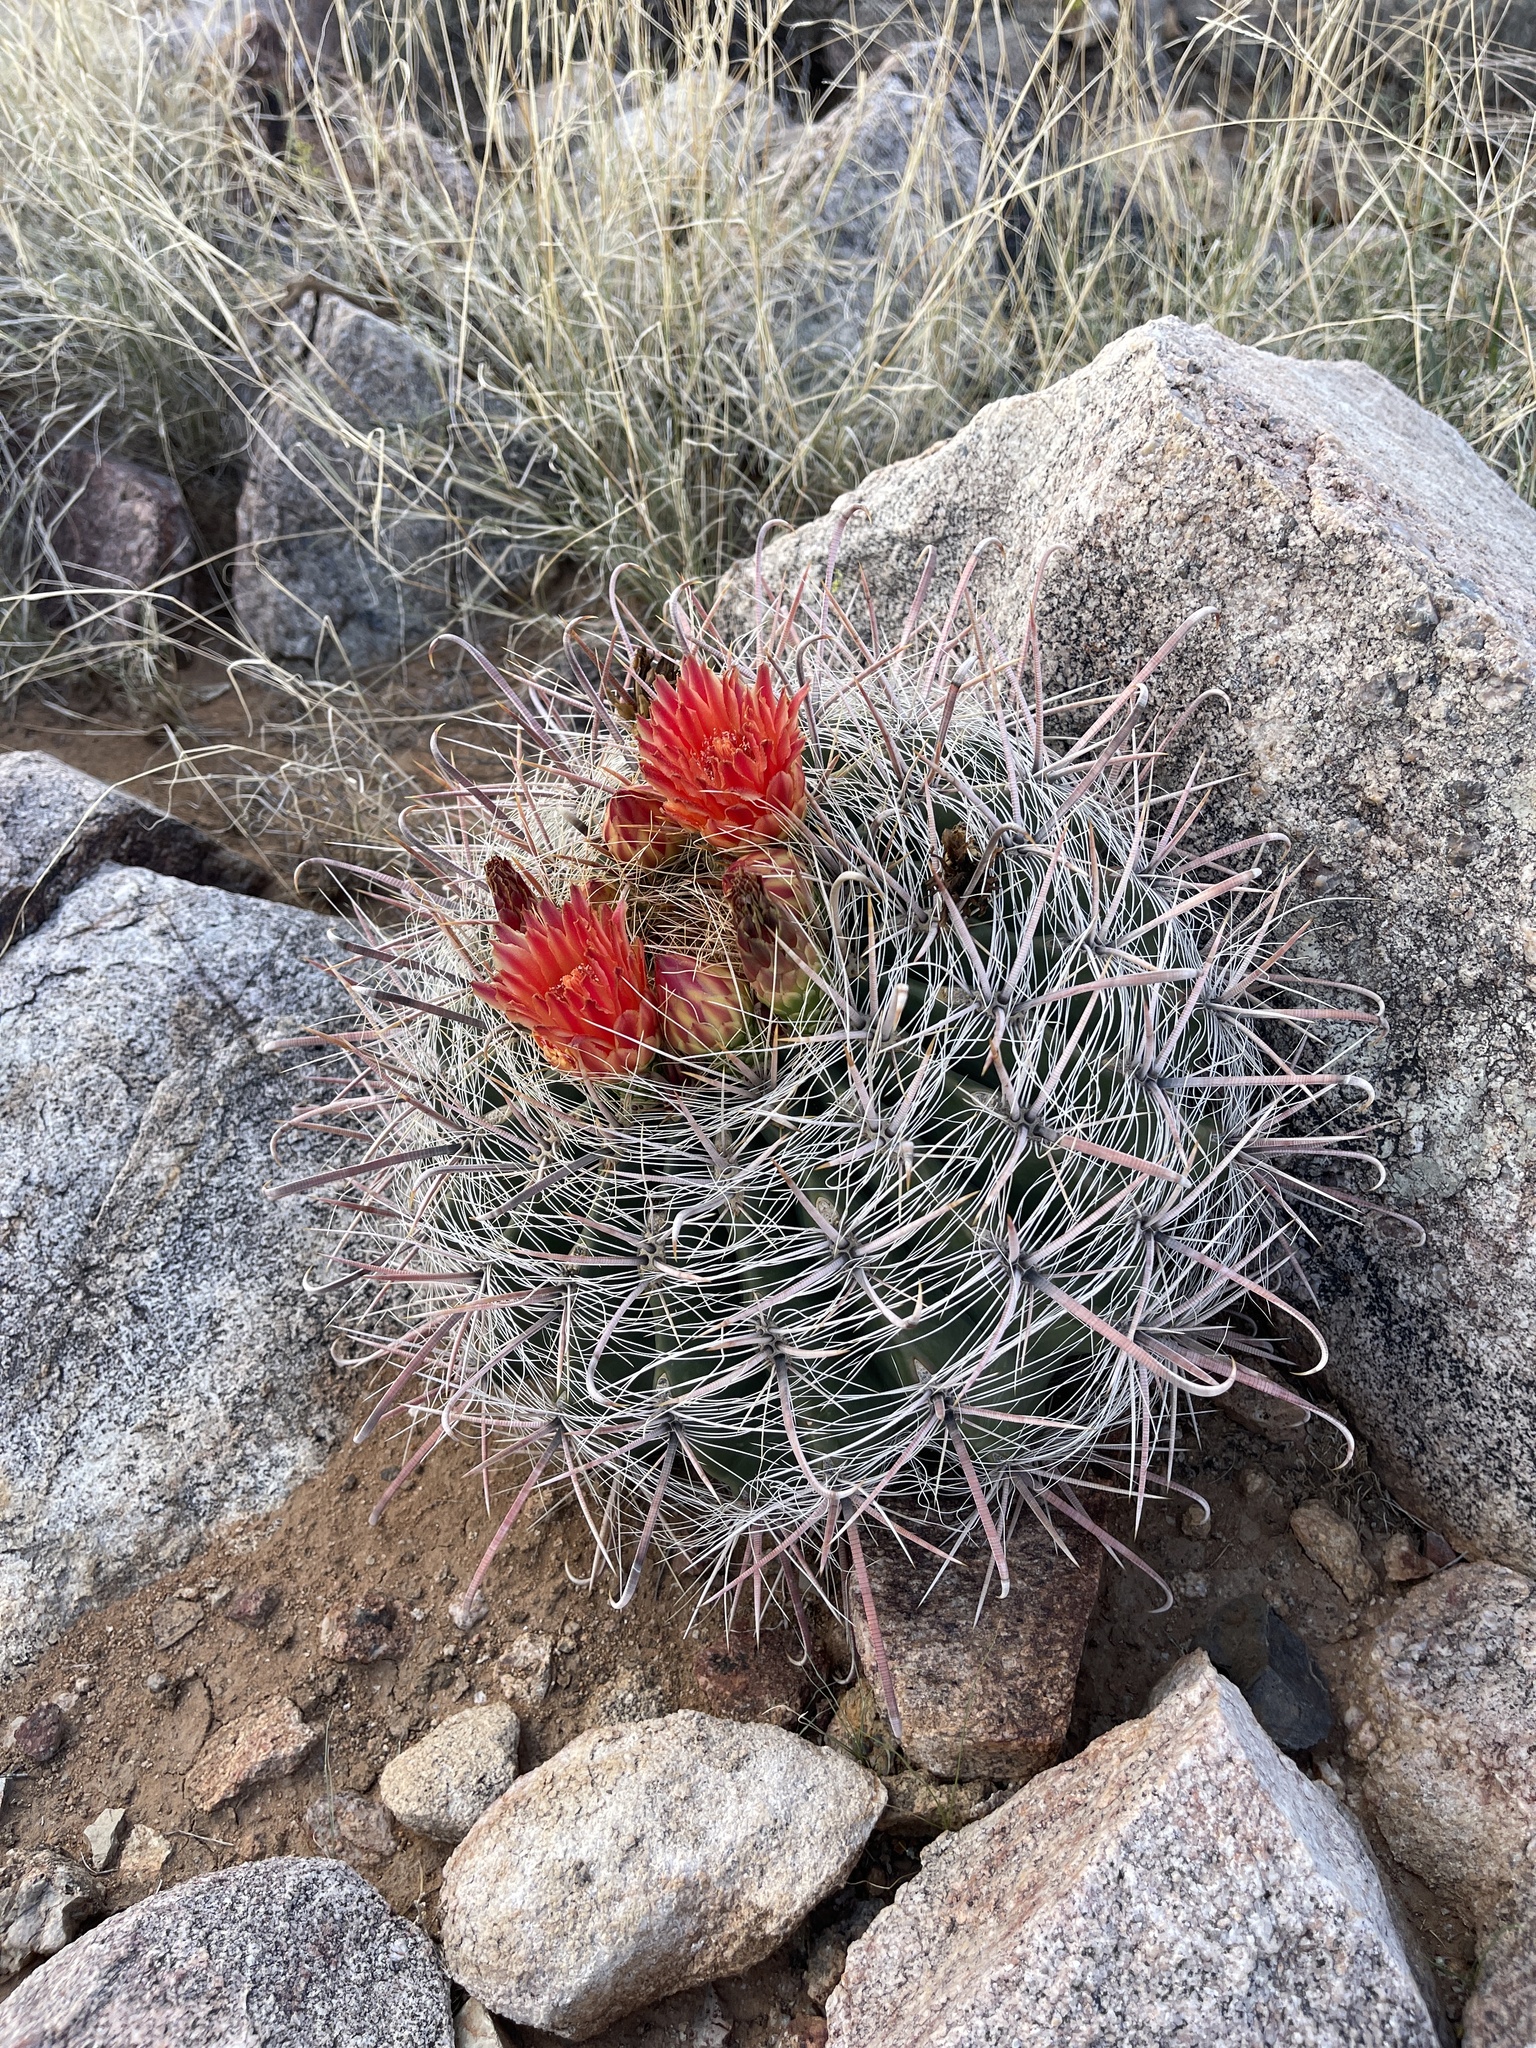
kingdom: Plantae
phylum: Tracheophyta
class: Magnoliopsida
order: Caryophyllales
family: Cactaceae
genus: Ferocactus
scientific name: Ferocactus wislizeni
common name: Candy barrel cactus
